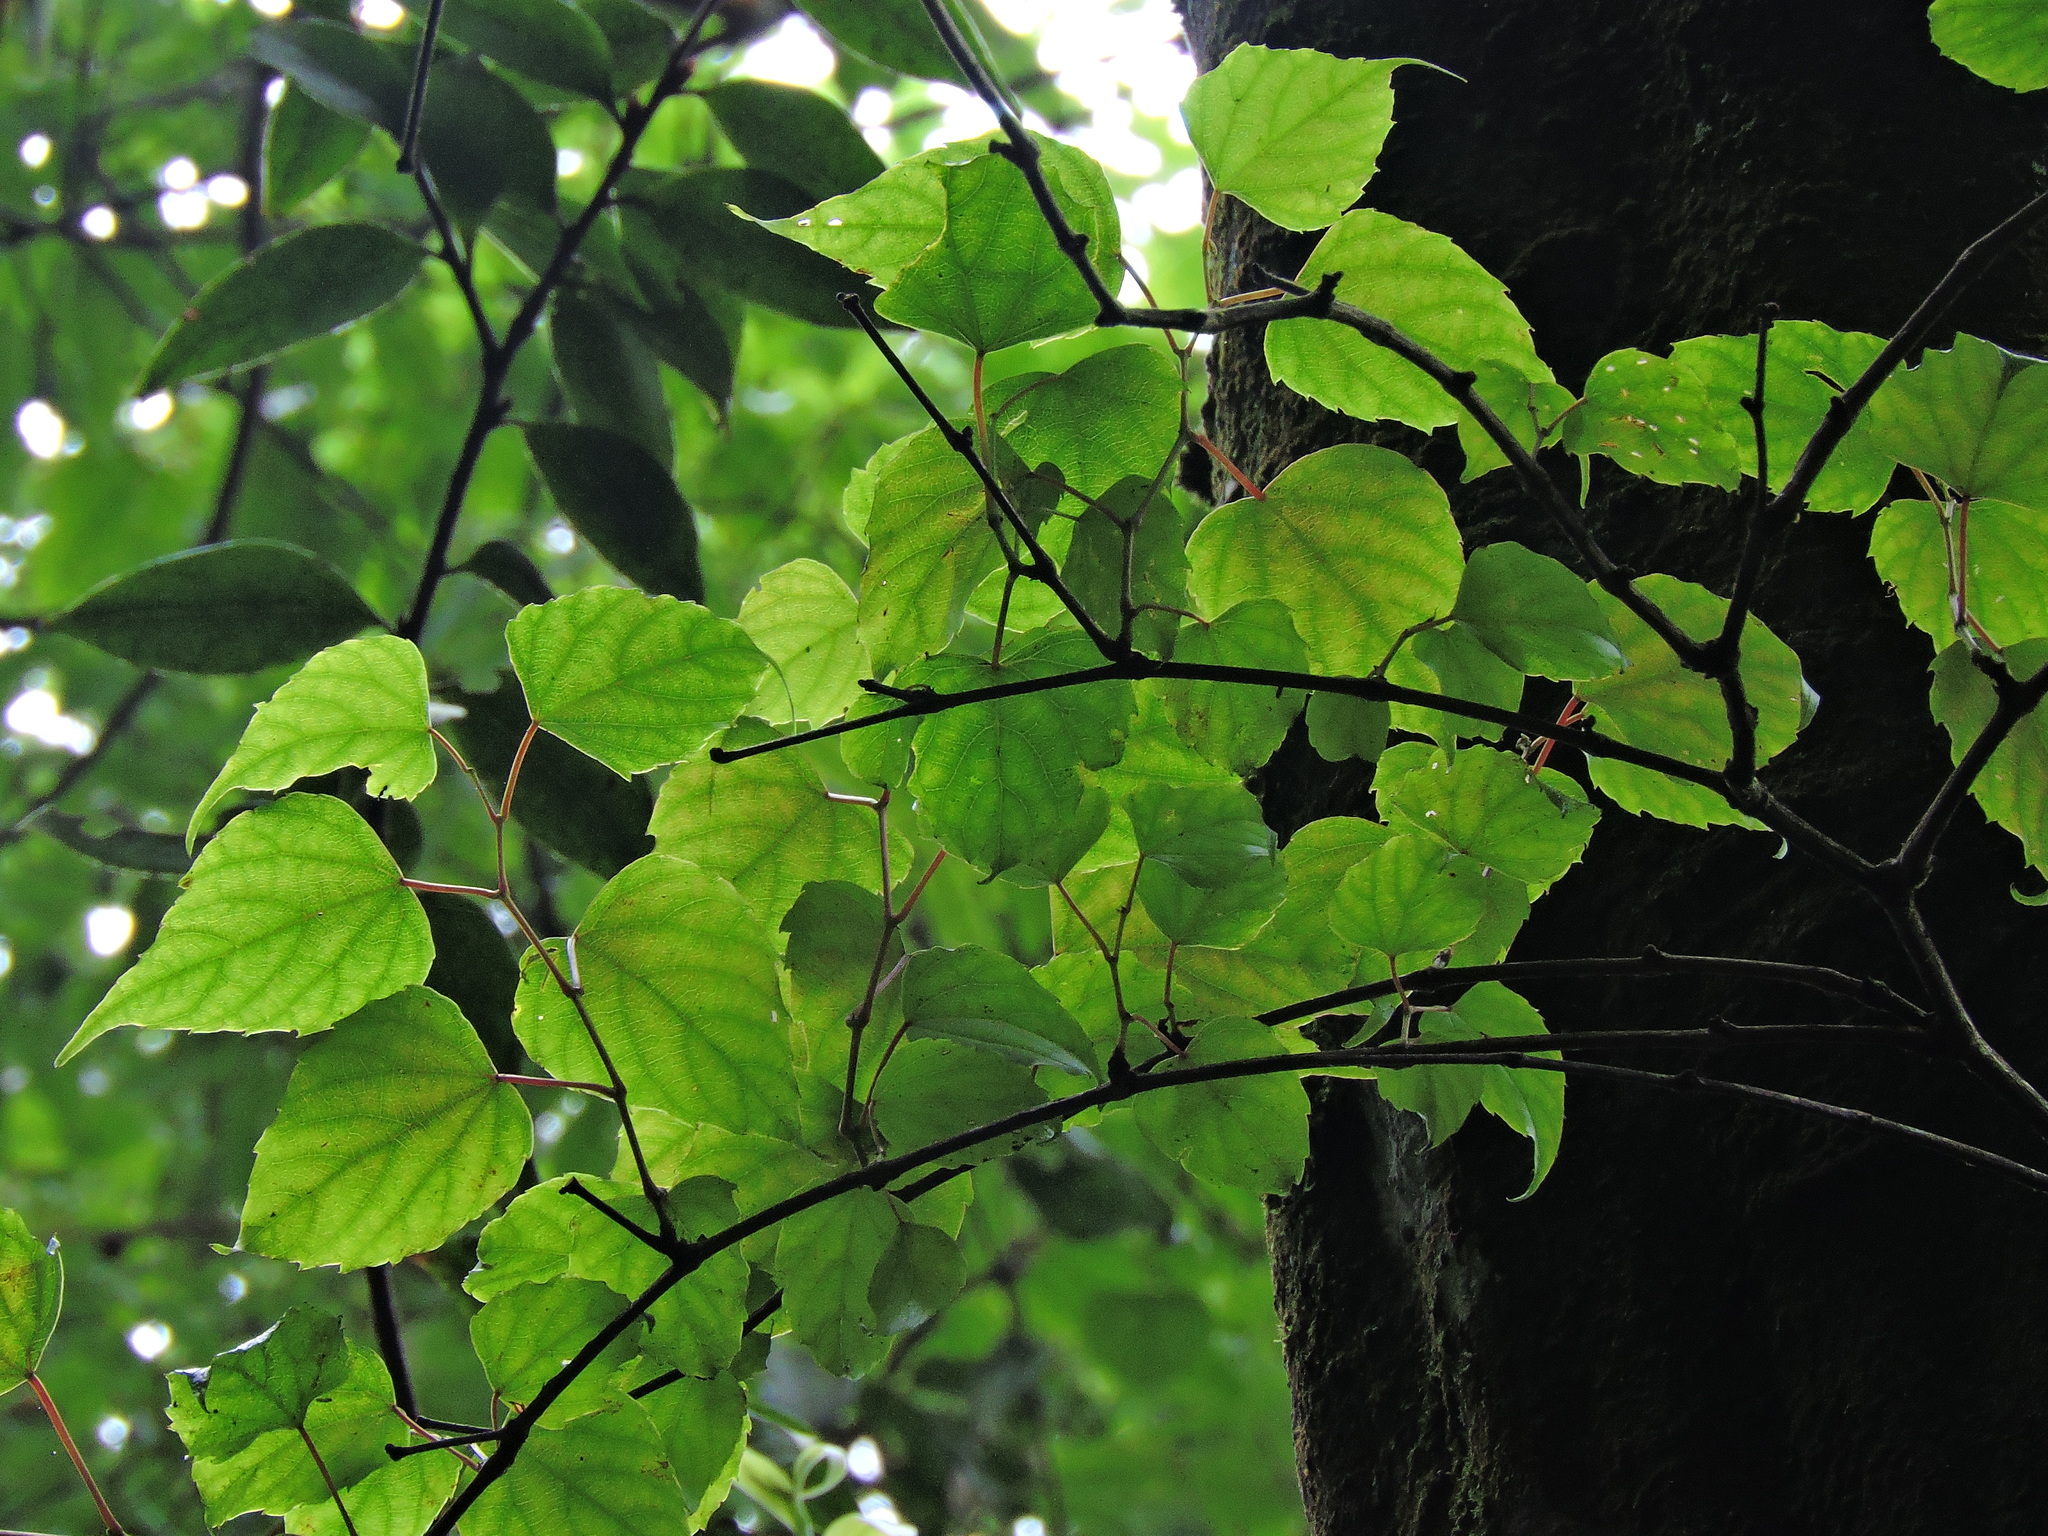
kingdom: Plantae
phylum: Tracheophyta
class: Magnoliopsida
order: Vitales
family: Vitaceae
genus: Vitis
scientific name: Vitis flexuosa
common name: Creeping grape
